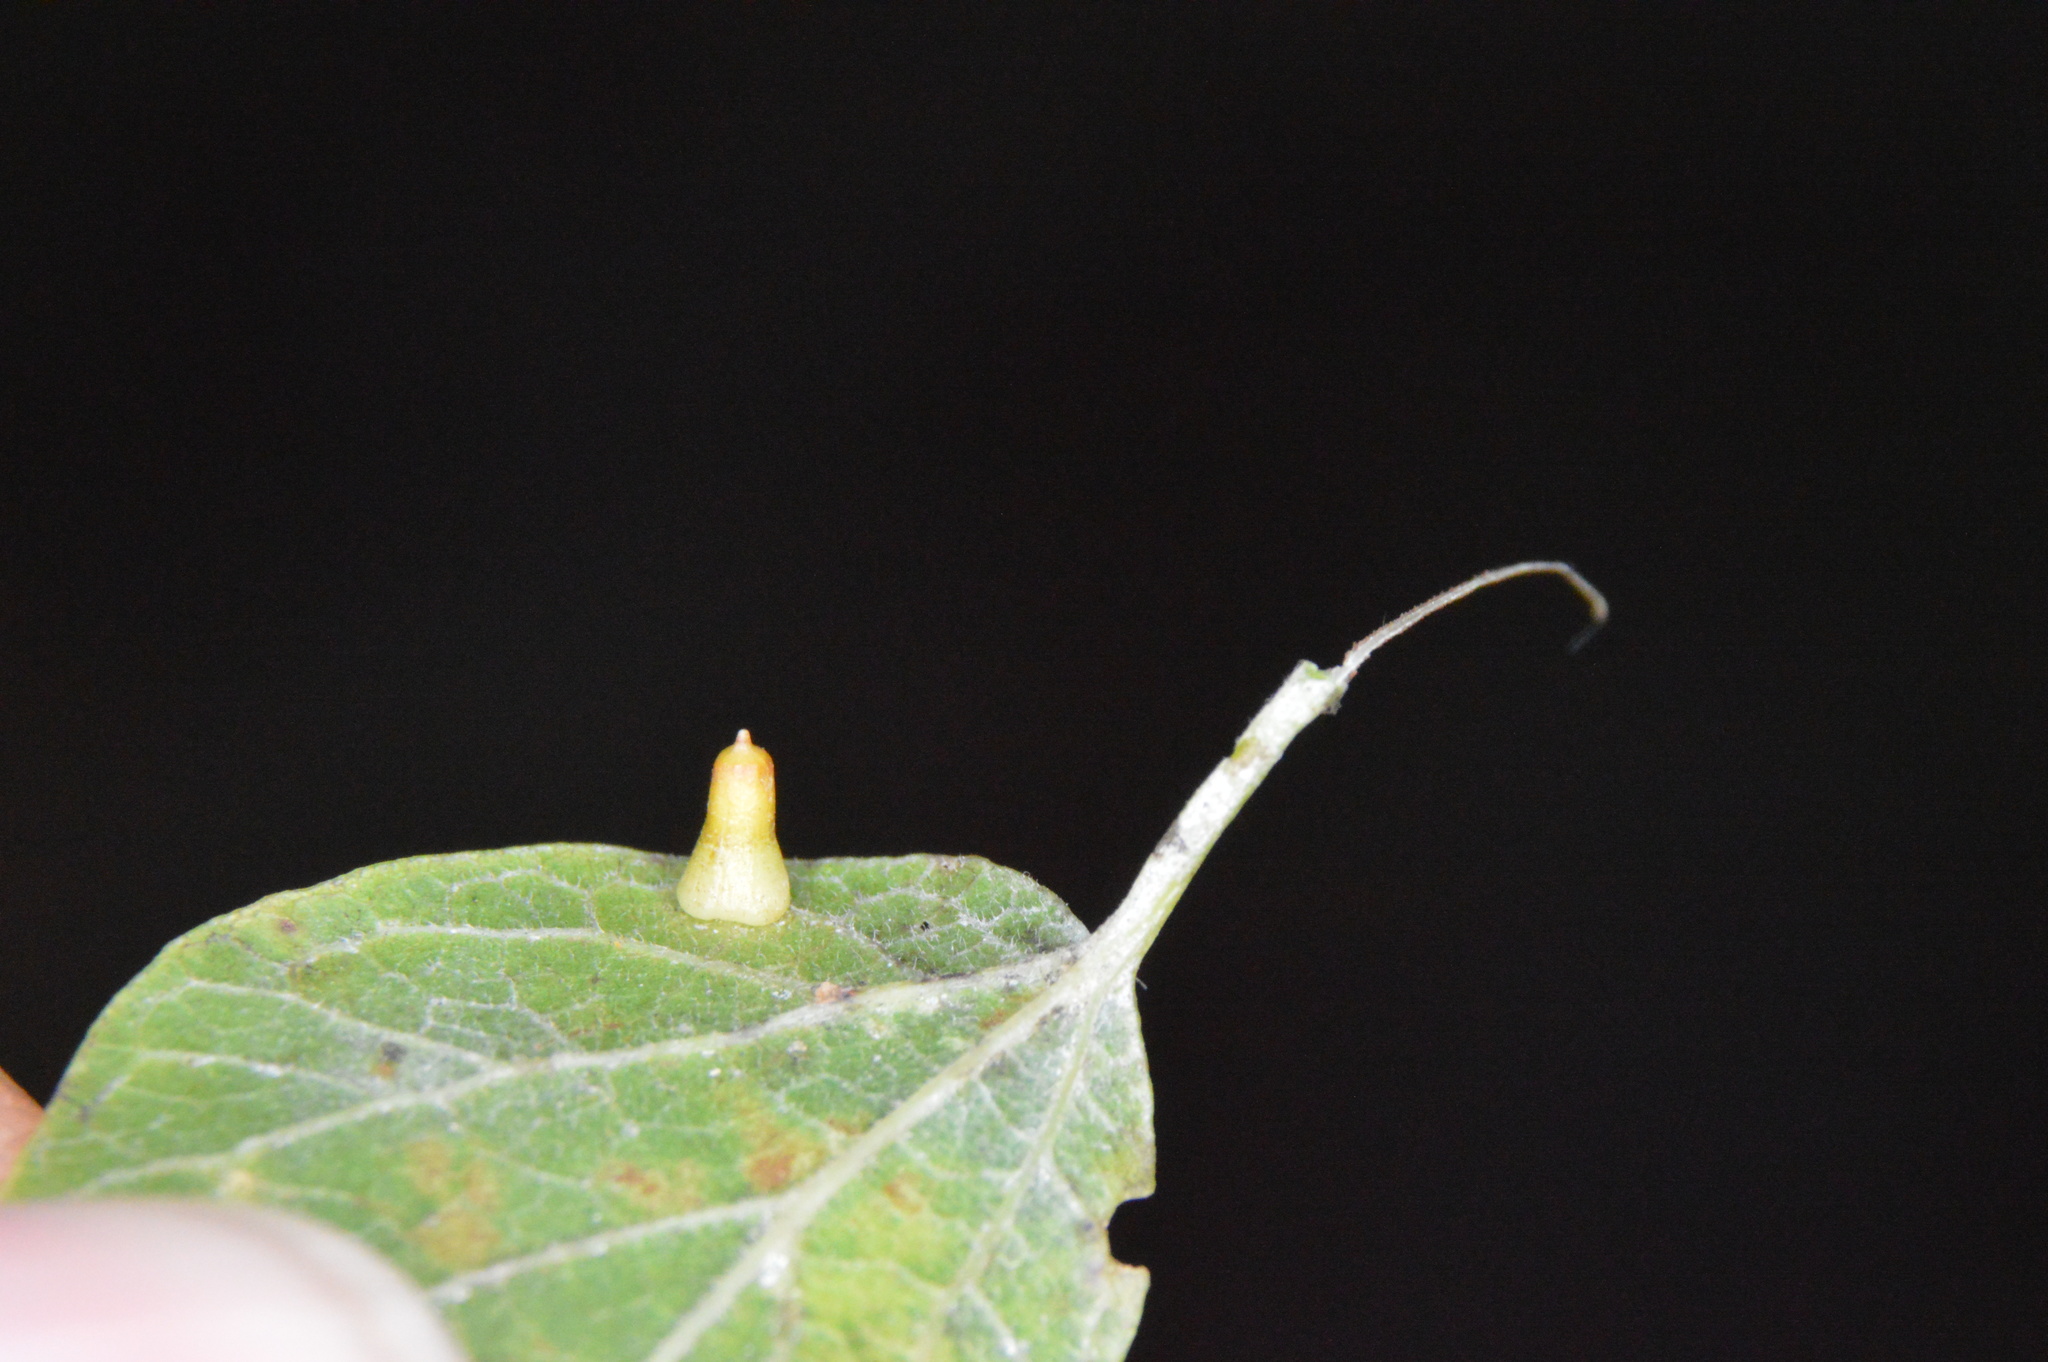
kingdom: Animalia
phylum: Arthropoda
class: Insecta
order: Diptera
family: Cecidomyiidae
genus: Celticecis
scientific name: Celticecis aciculata
